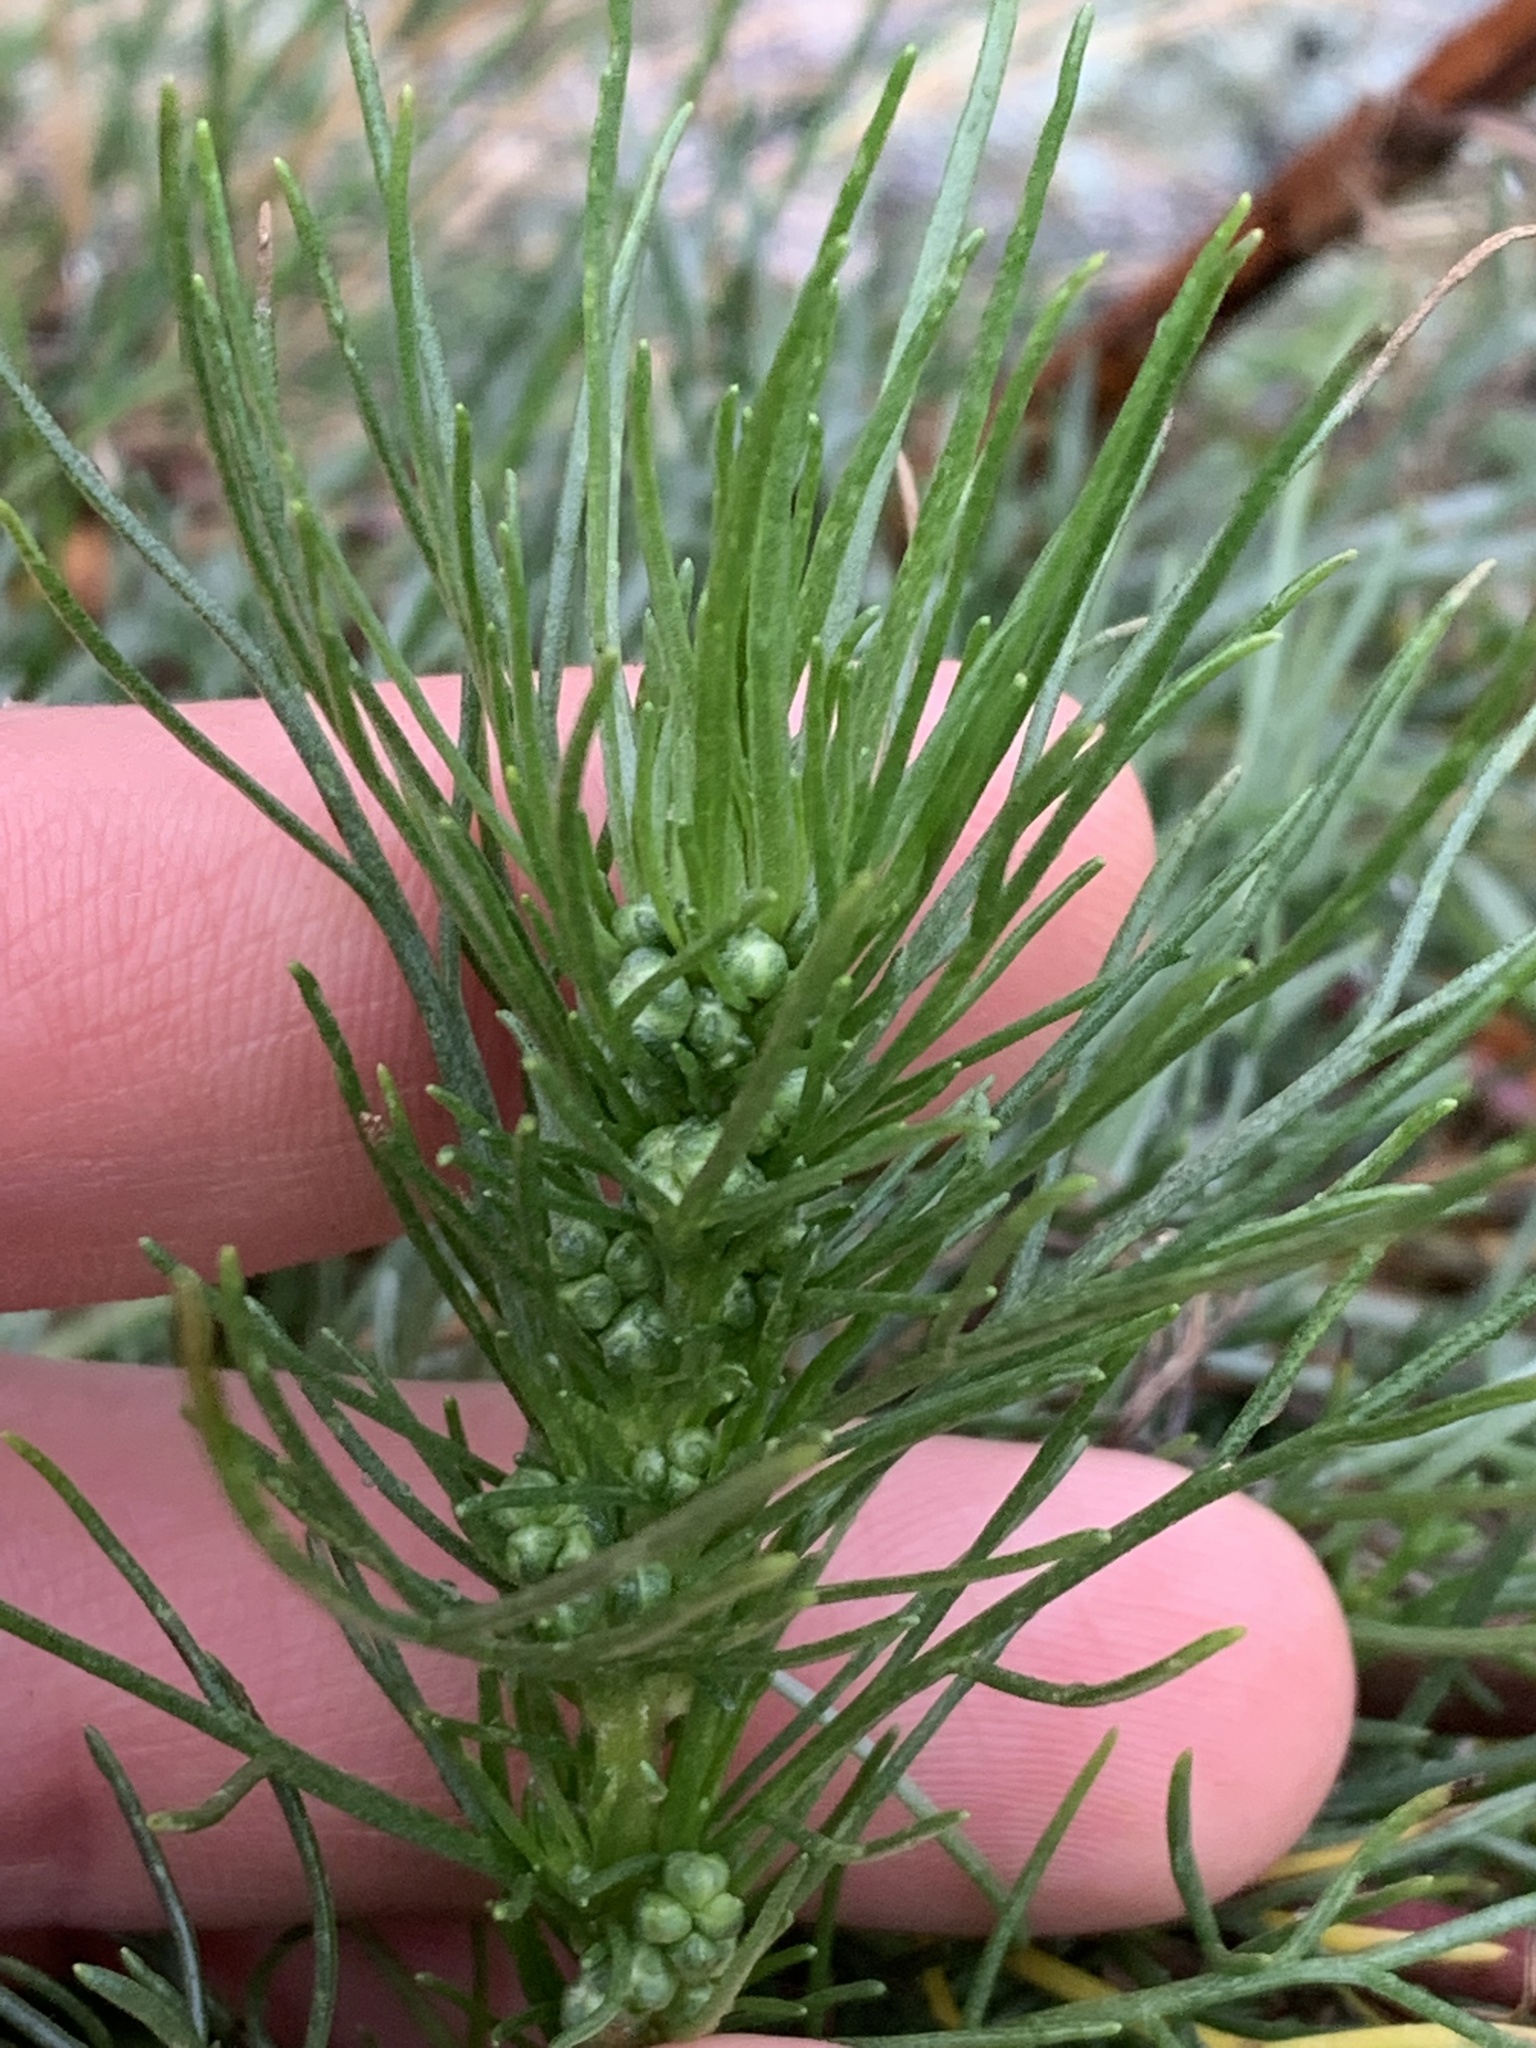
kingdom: Plantae
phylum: Tracheophyta
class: Magnoliopsida
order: Asterales
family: Asteraceae
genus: Artemisia
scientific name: Artemisia campestris
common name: Field wormwood
